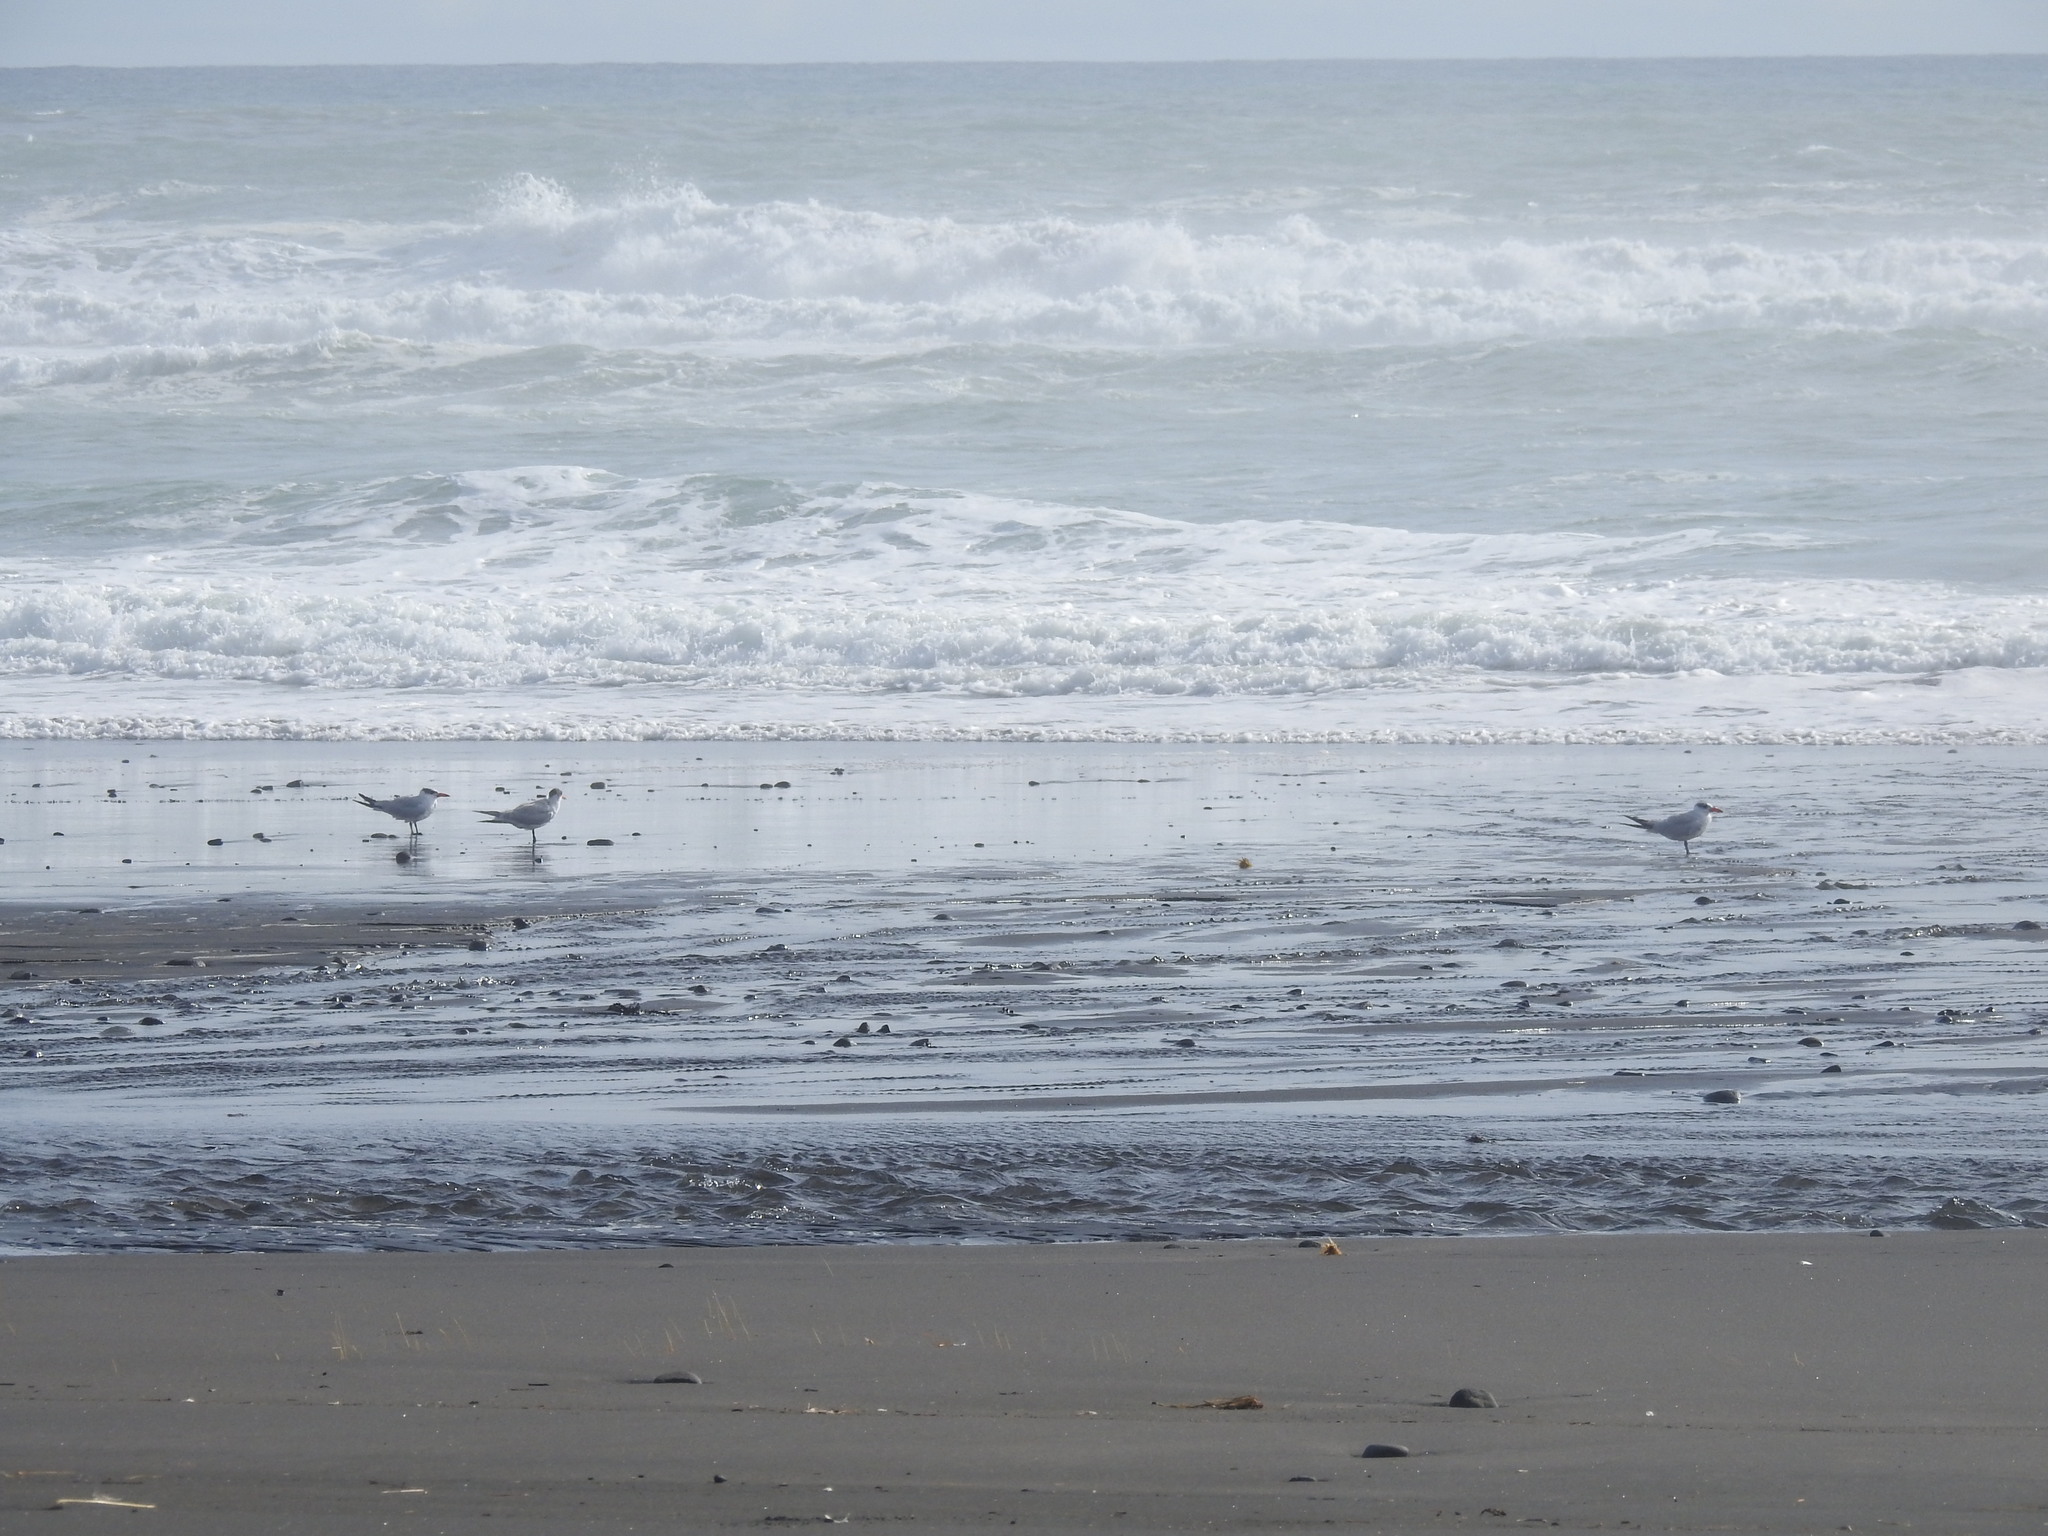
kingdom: Animalia
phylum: Chordata
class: Aves
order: Charadriiformes
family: Laridae
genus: Hydroprogne
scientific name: Hydroprogne caspia
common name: Caspian tern
